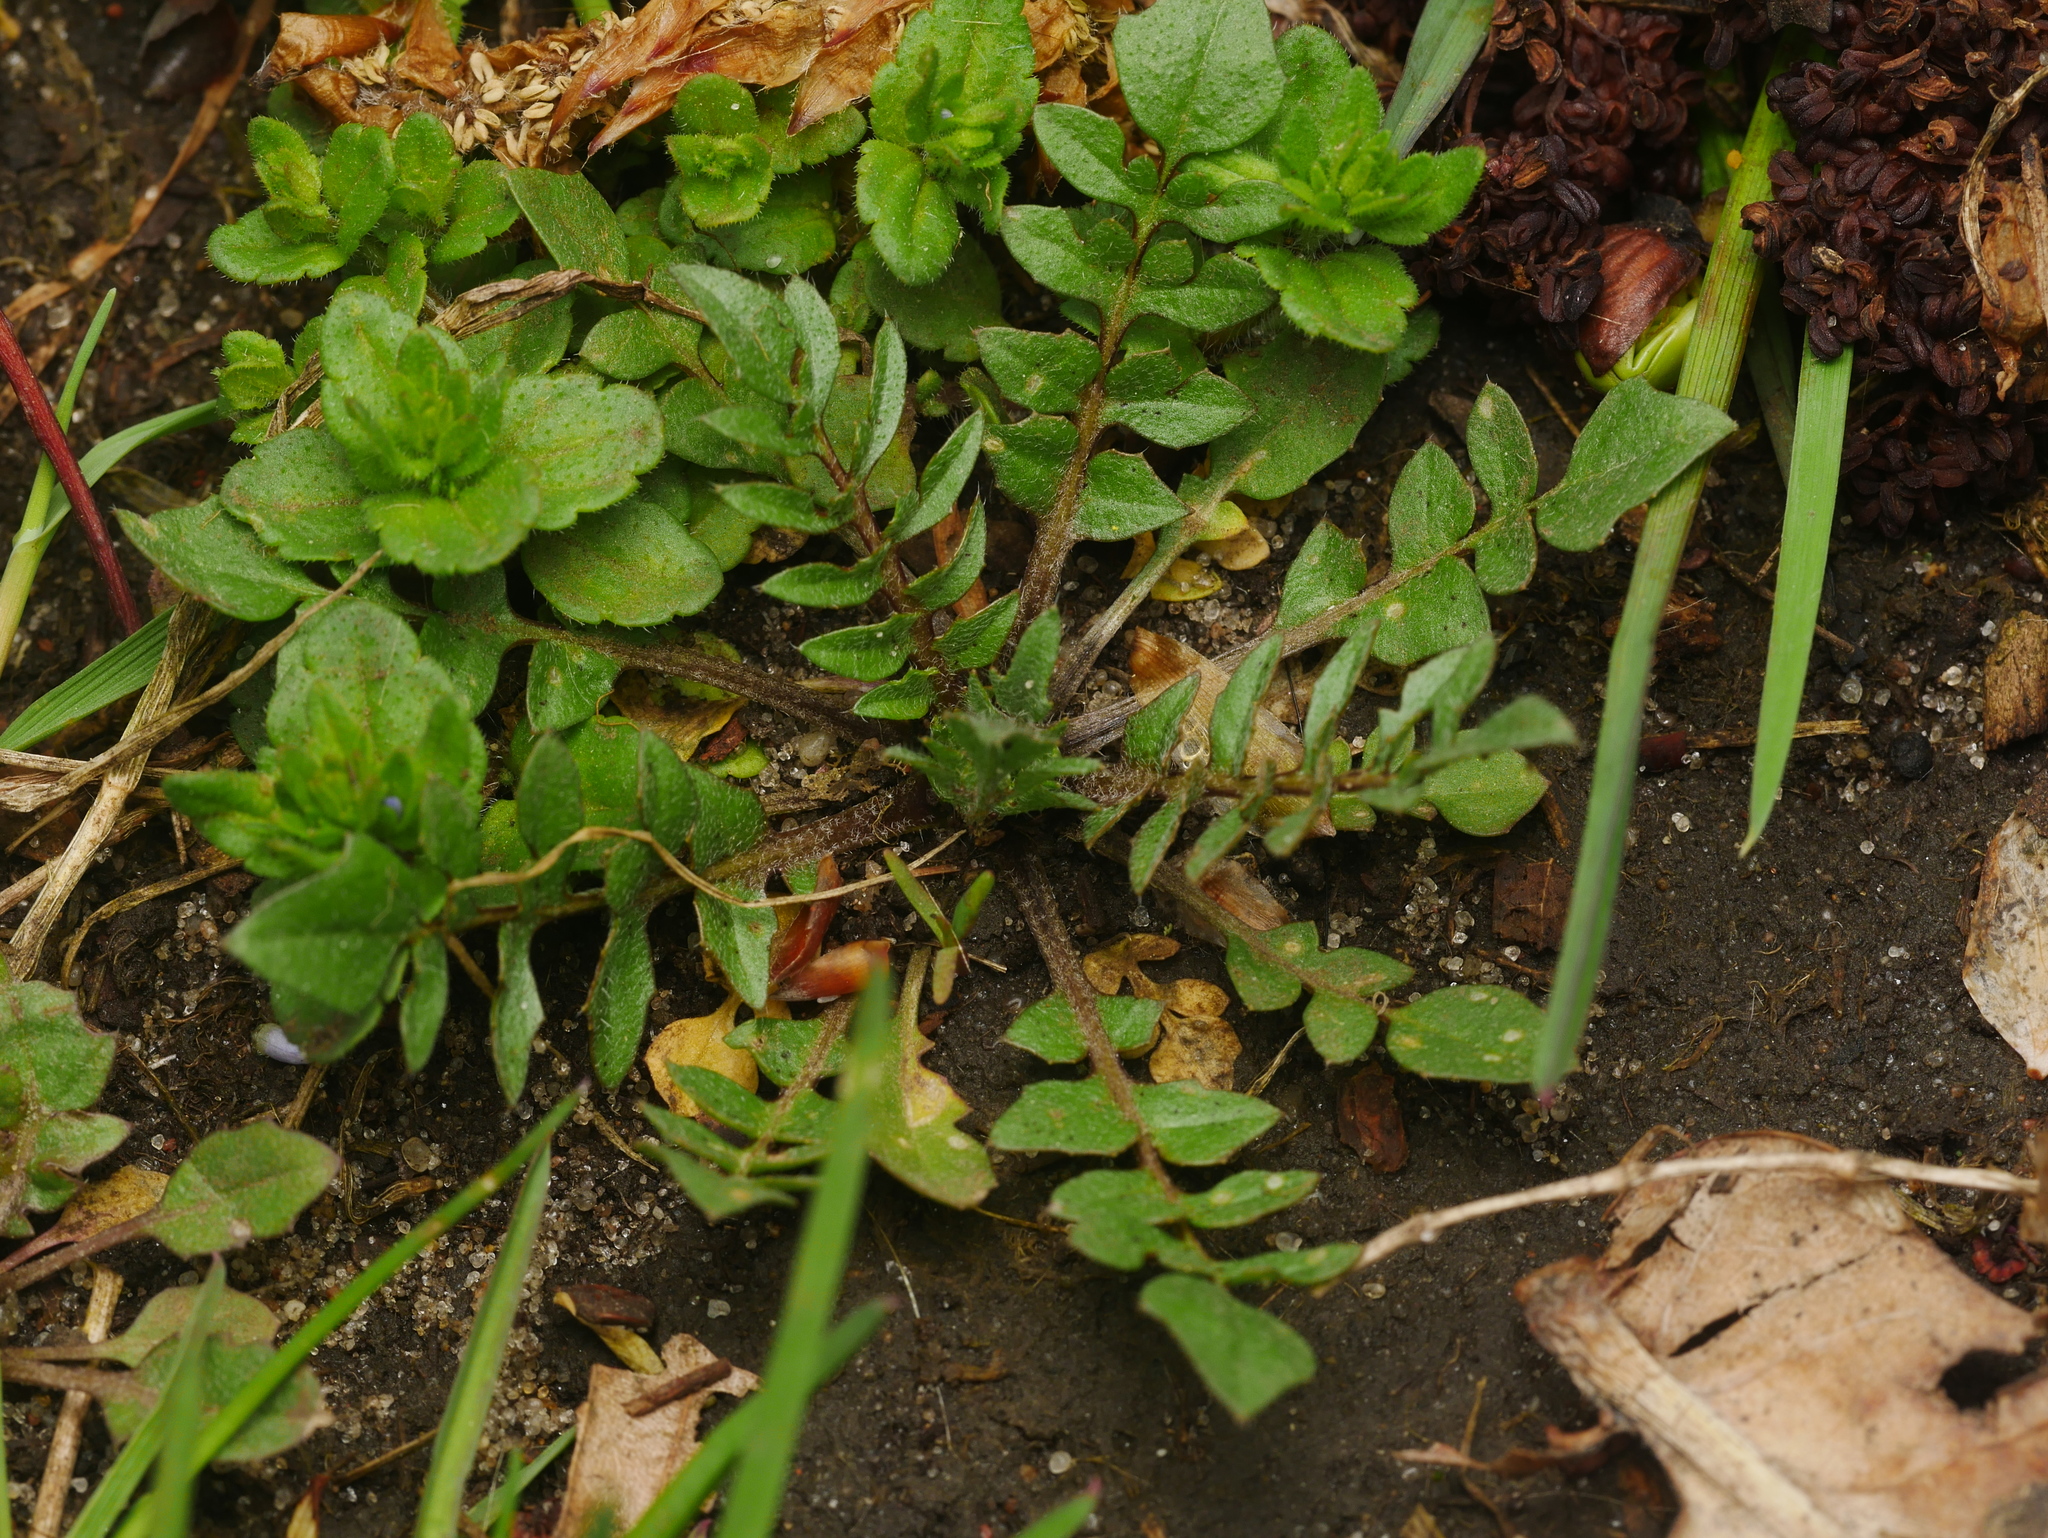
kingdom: Plantae
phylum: Tracheophyta
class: Magnoliopsida
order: Brassicales
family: Brassicaceae
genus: Capsella
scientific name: Capsella bursa-pastoris
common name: Shepherd's purse
